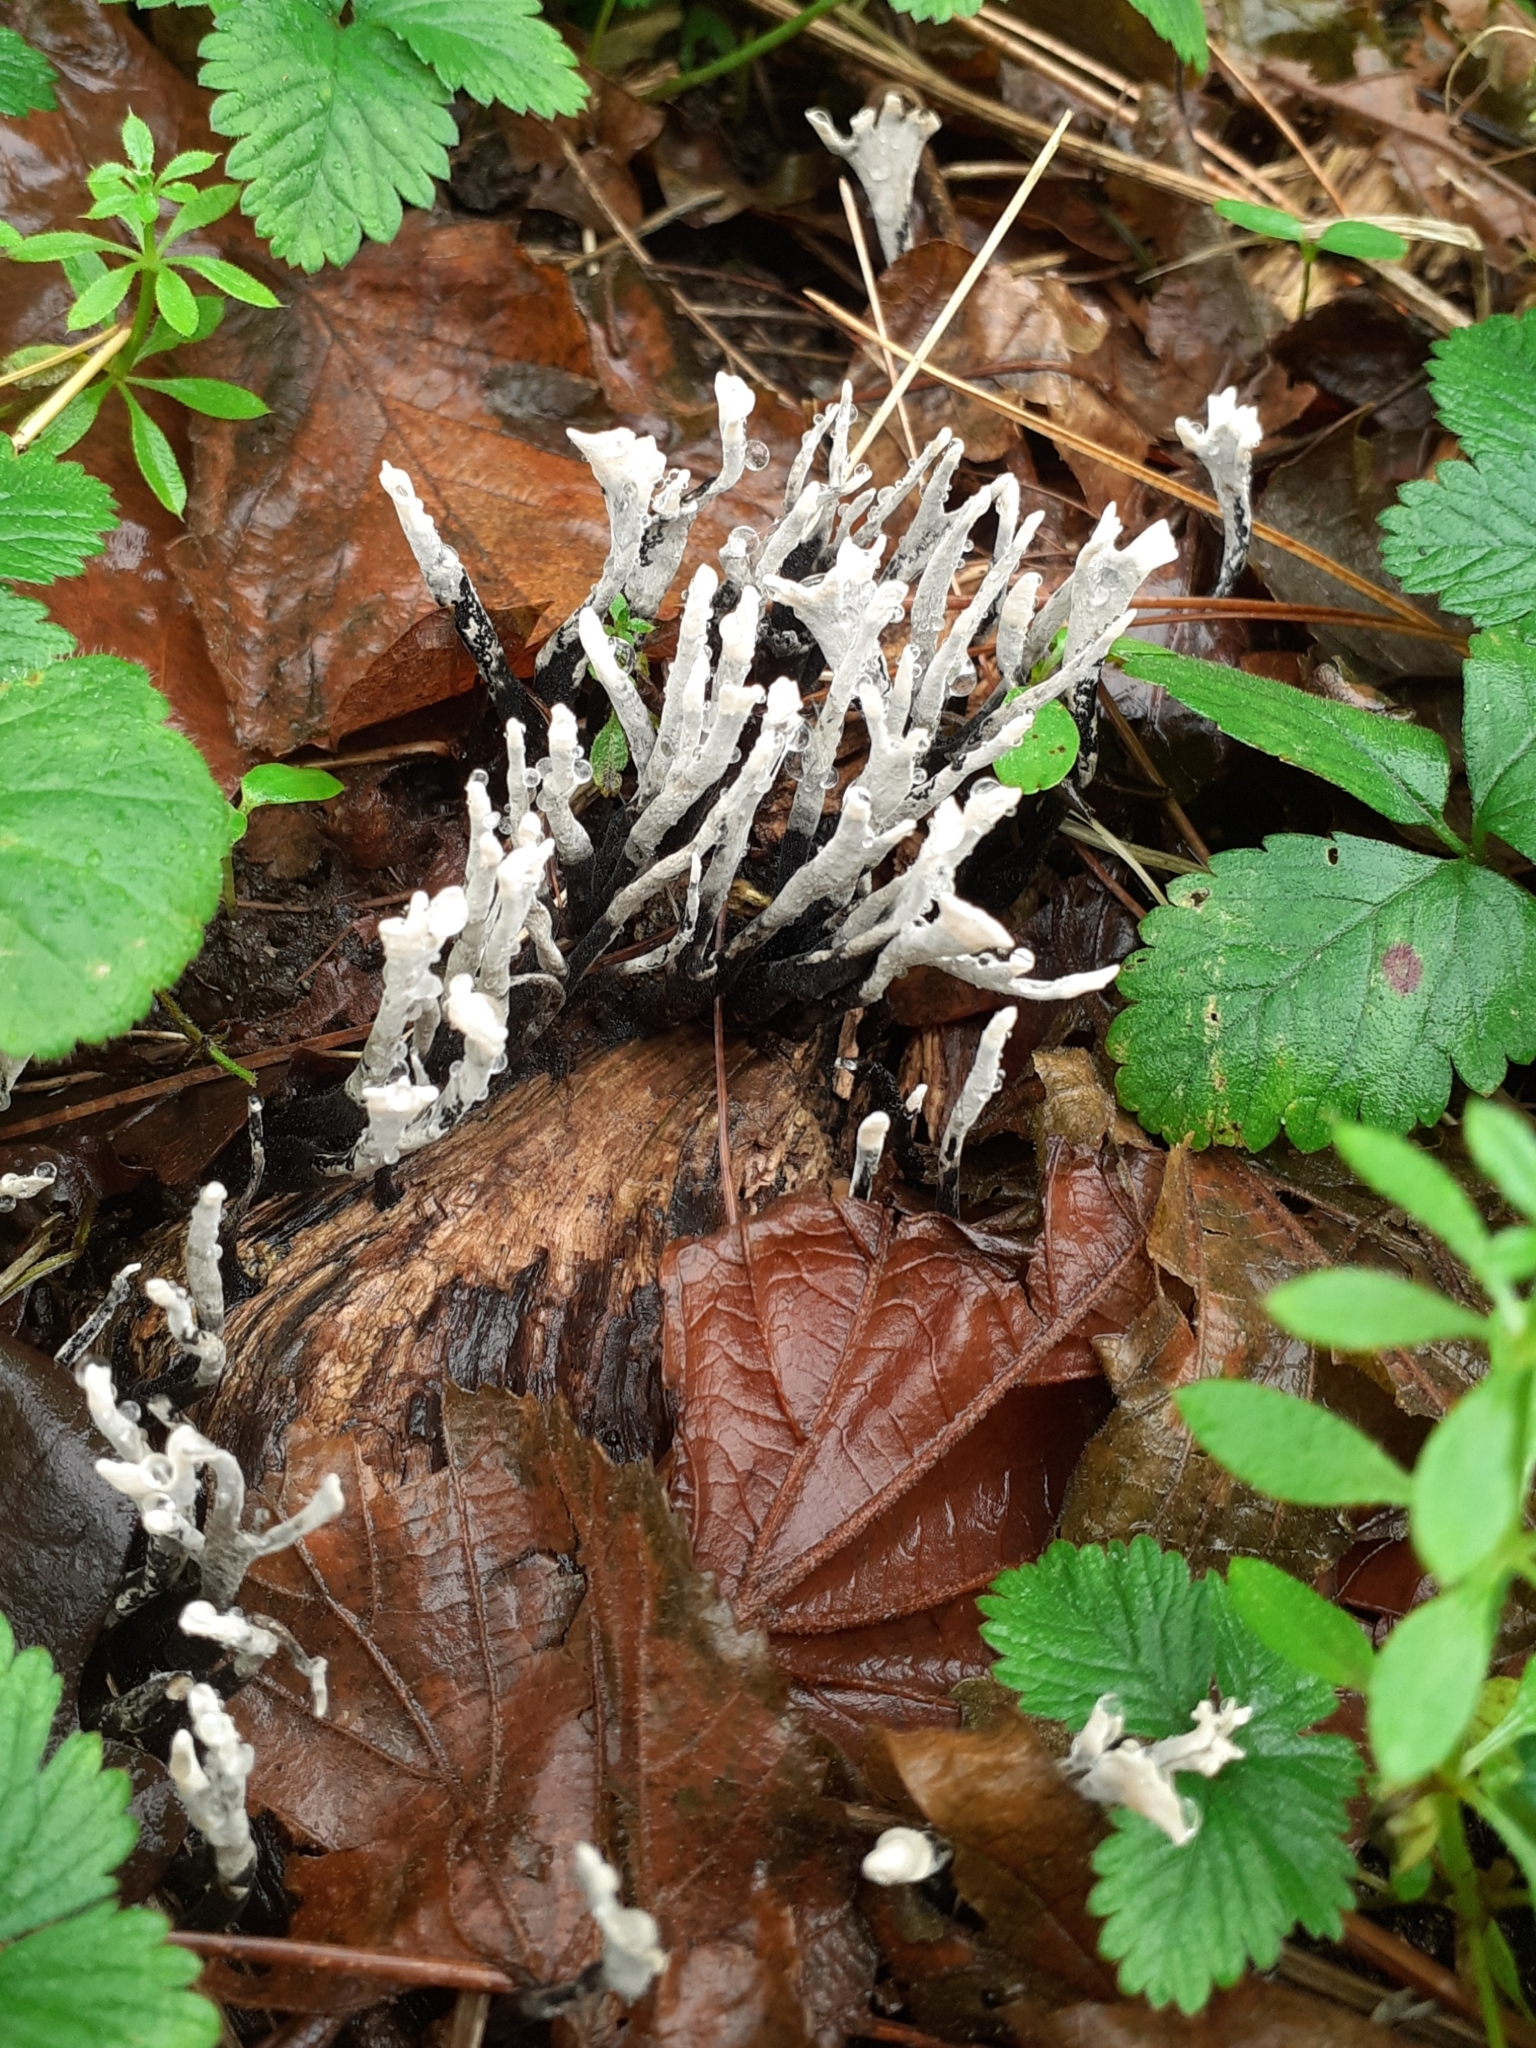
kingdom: Fungi
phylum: Ascomycota
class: Sordariomycetes
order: Xylariales
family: Xylariaceae
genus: Xylaria
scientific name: Xylaria hypoxylon
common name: Candle-snuff fungus
